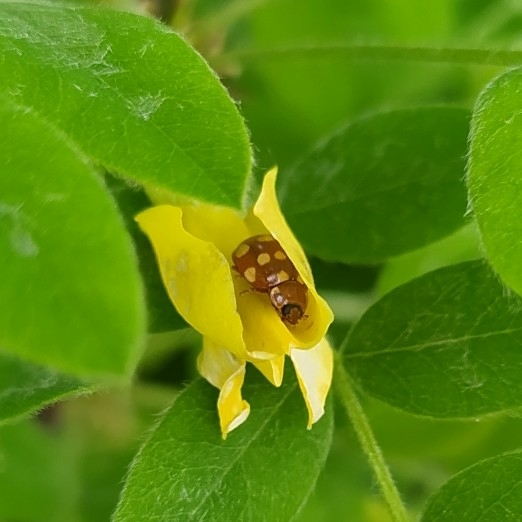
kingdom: Animalia
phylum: Arthropoda
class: Insecta
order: Coleoptera
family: Coccinellidae
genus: Calvia
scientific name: Calvia quatuordecimguttata
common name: Cream-spot ladybird
